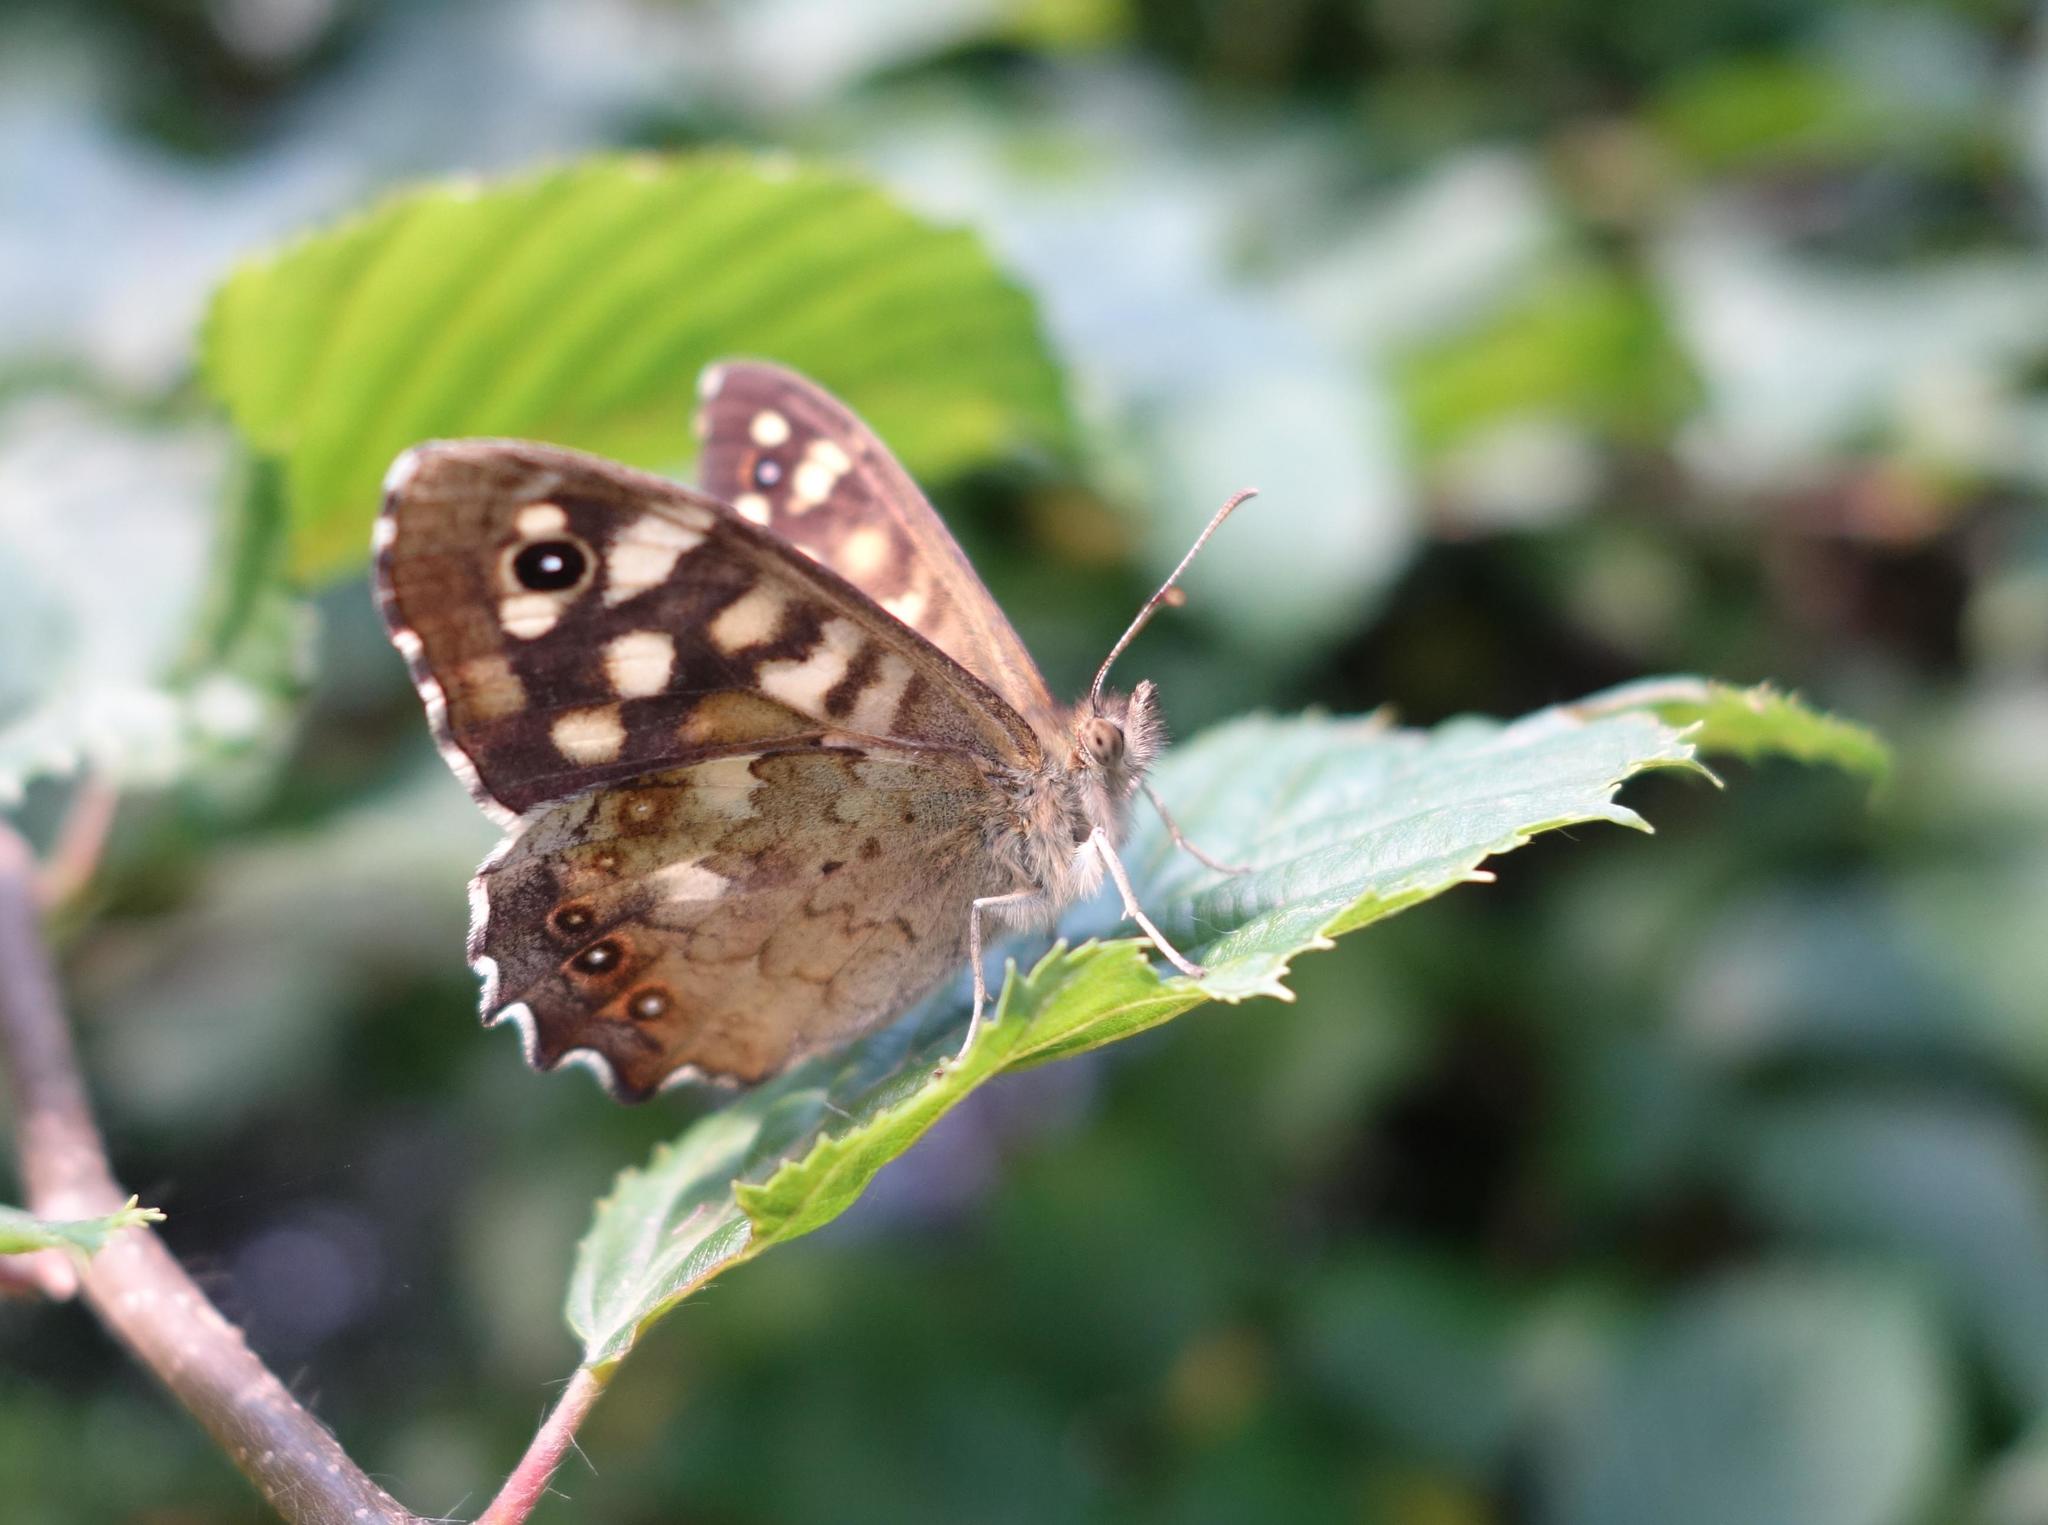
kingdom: Animalia
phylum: Arthropoda
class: Insecta
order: Lepidoptera
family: Nymphalidae
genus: Pararge
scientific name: Pararge aegeria
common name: Speckled wood
